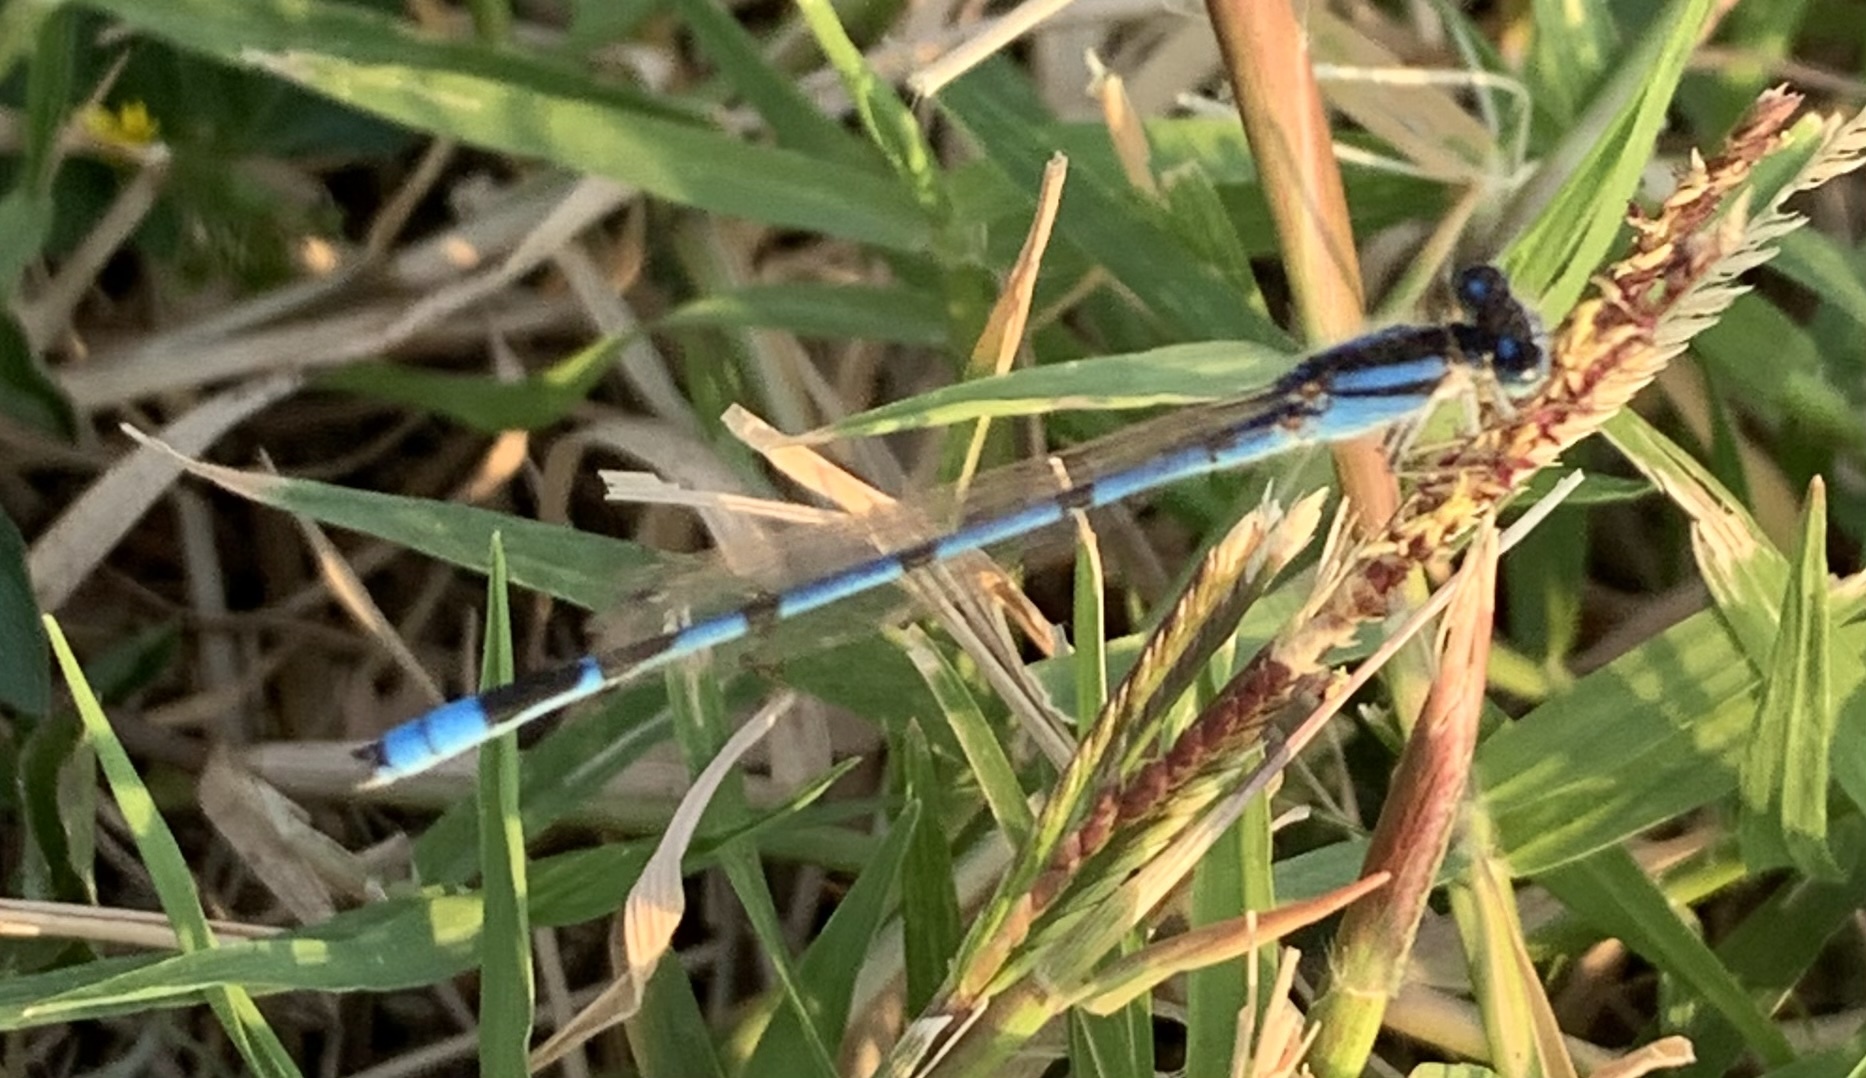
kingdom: Animalia
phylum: Arthropoda
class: Insecta
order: Odonata
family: Coenagrionidae
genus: Enallagma
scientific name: Enallagma civile
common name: Damselfly
